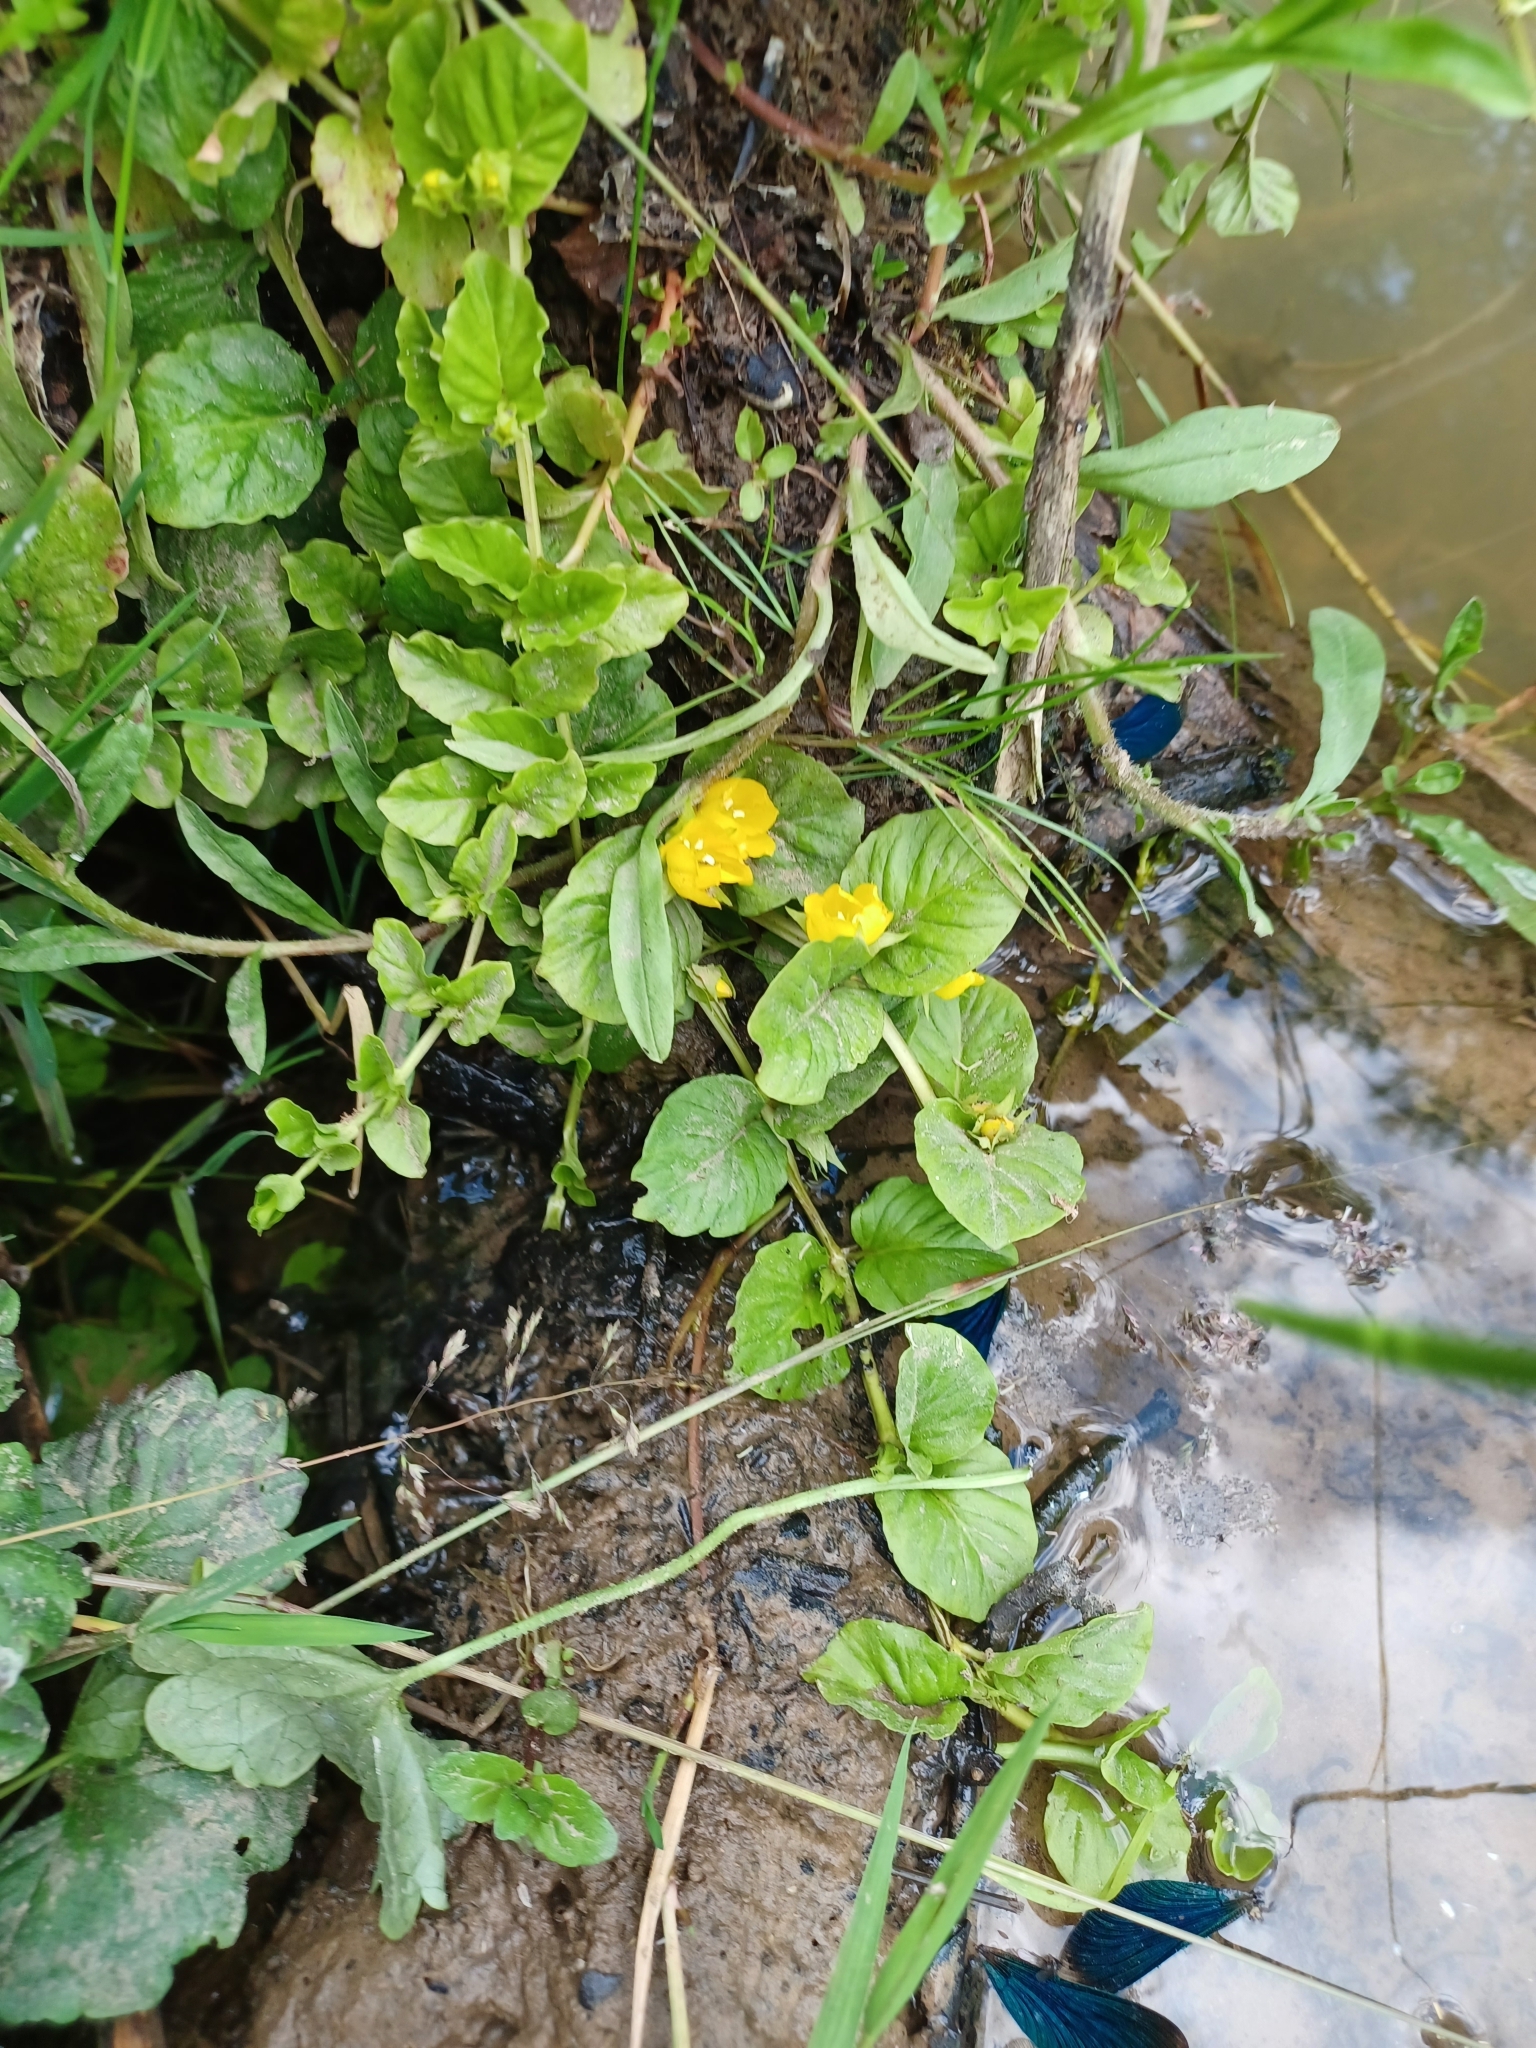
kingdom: Plantae
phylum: Tracheophyta
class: Magnoliopsida
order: Ericales
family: Primulaceae
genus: Lysimachia
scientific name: Lysimachia nummularia
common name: Moneywort
